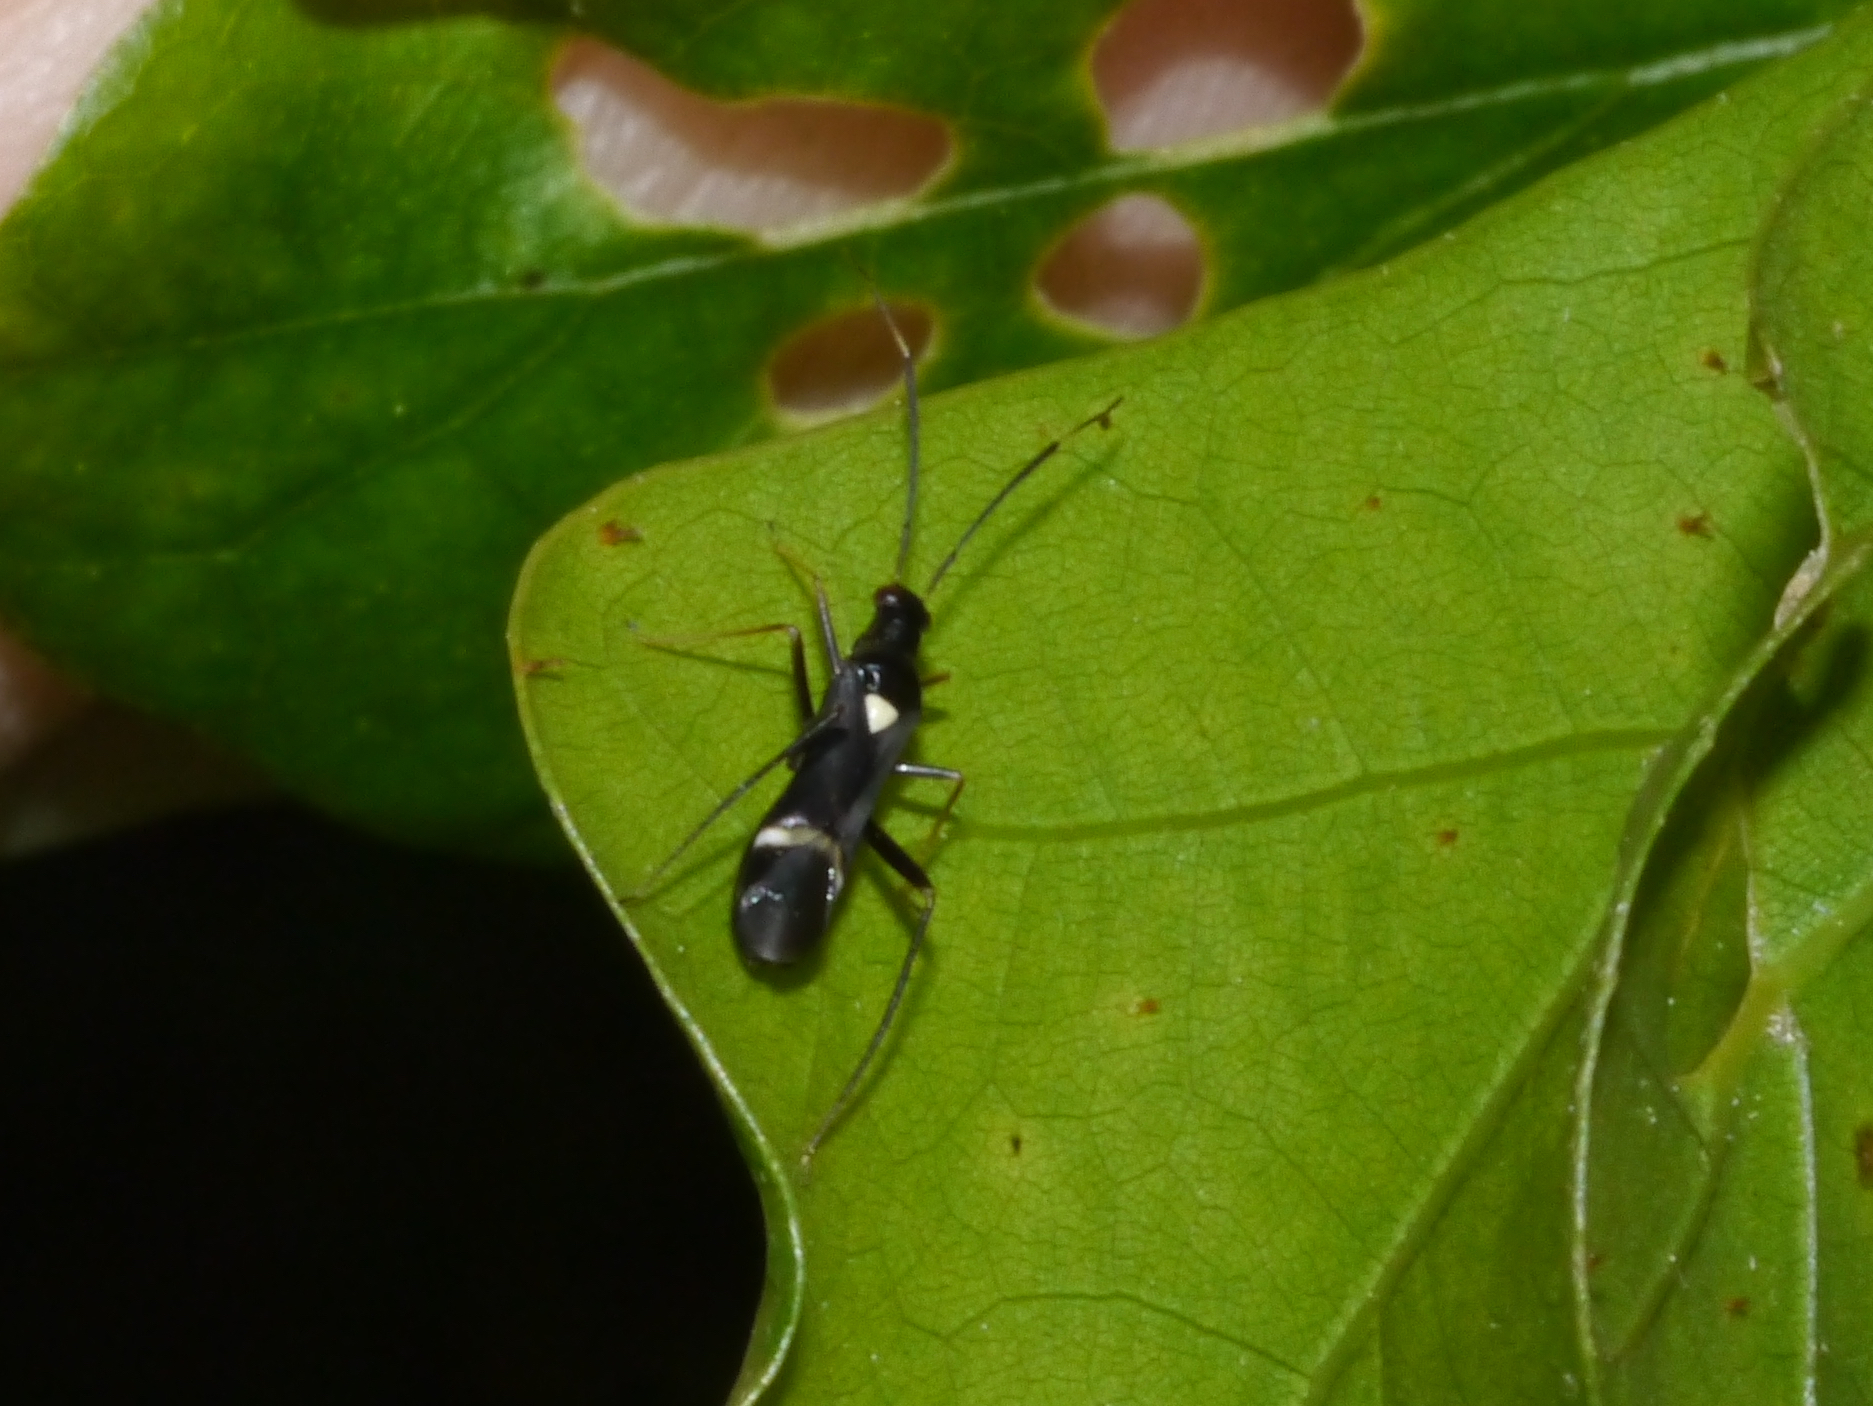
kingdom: Animalia
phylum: Arthropoda
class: Insecta
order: Hemiptera
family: Miridae
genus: Pseudoxenetus
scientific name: Pseudoxenetus regalis
